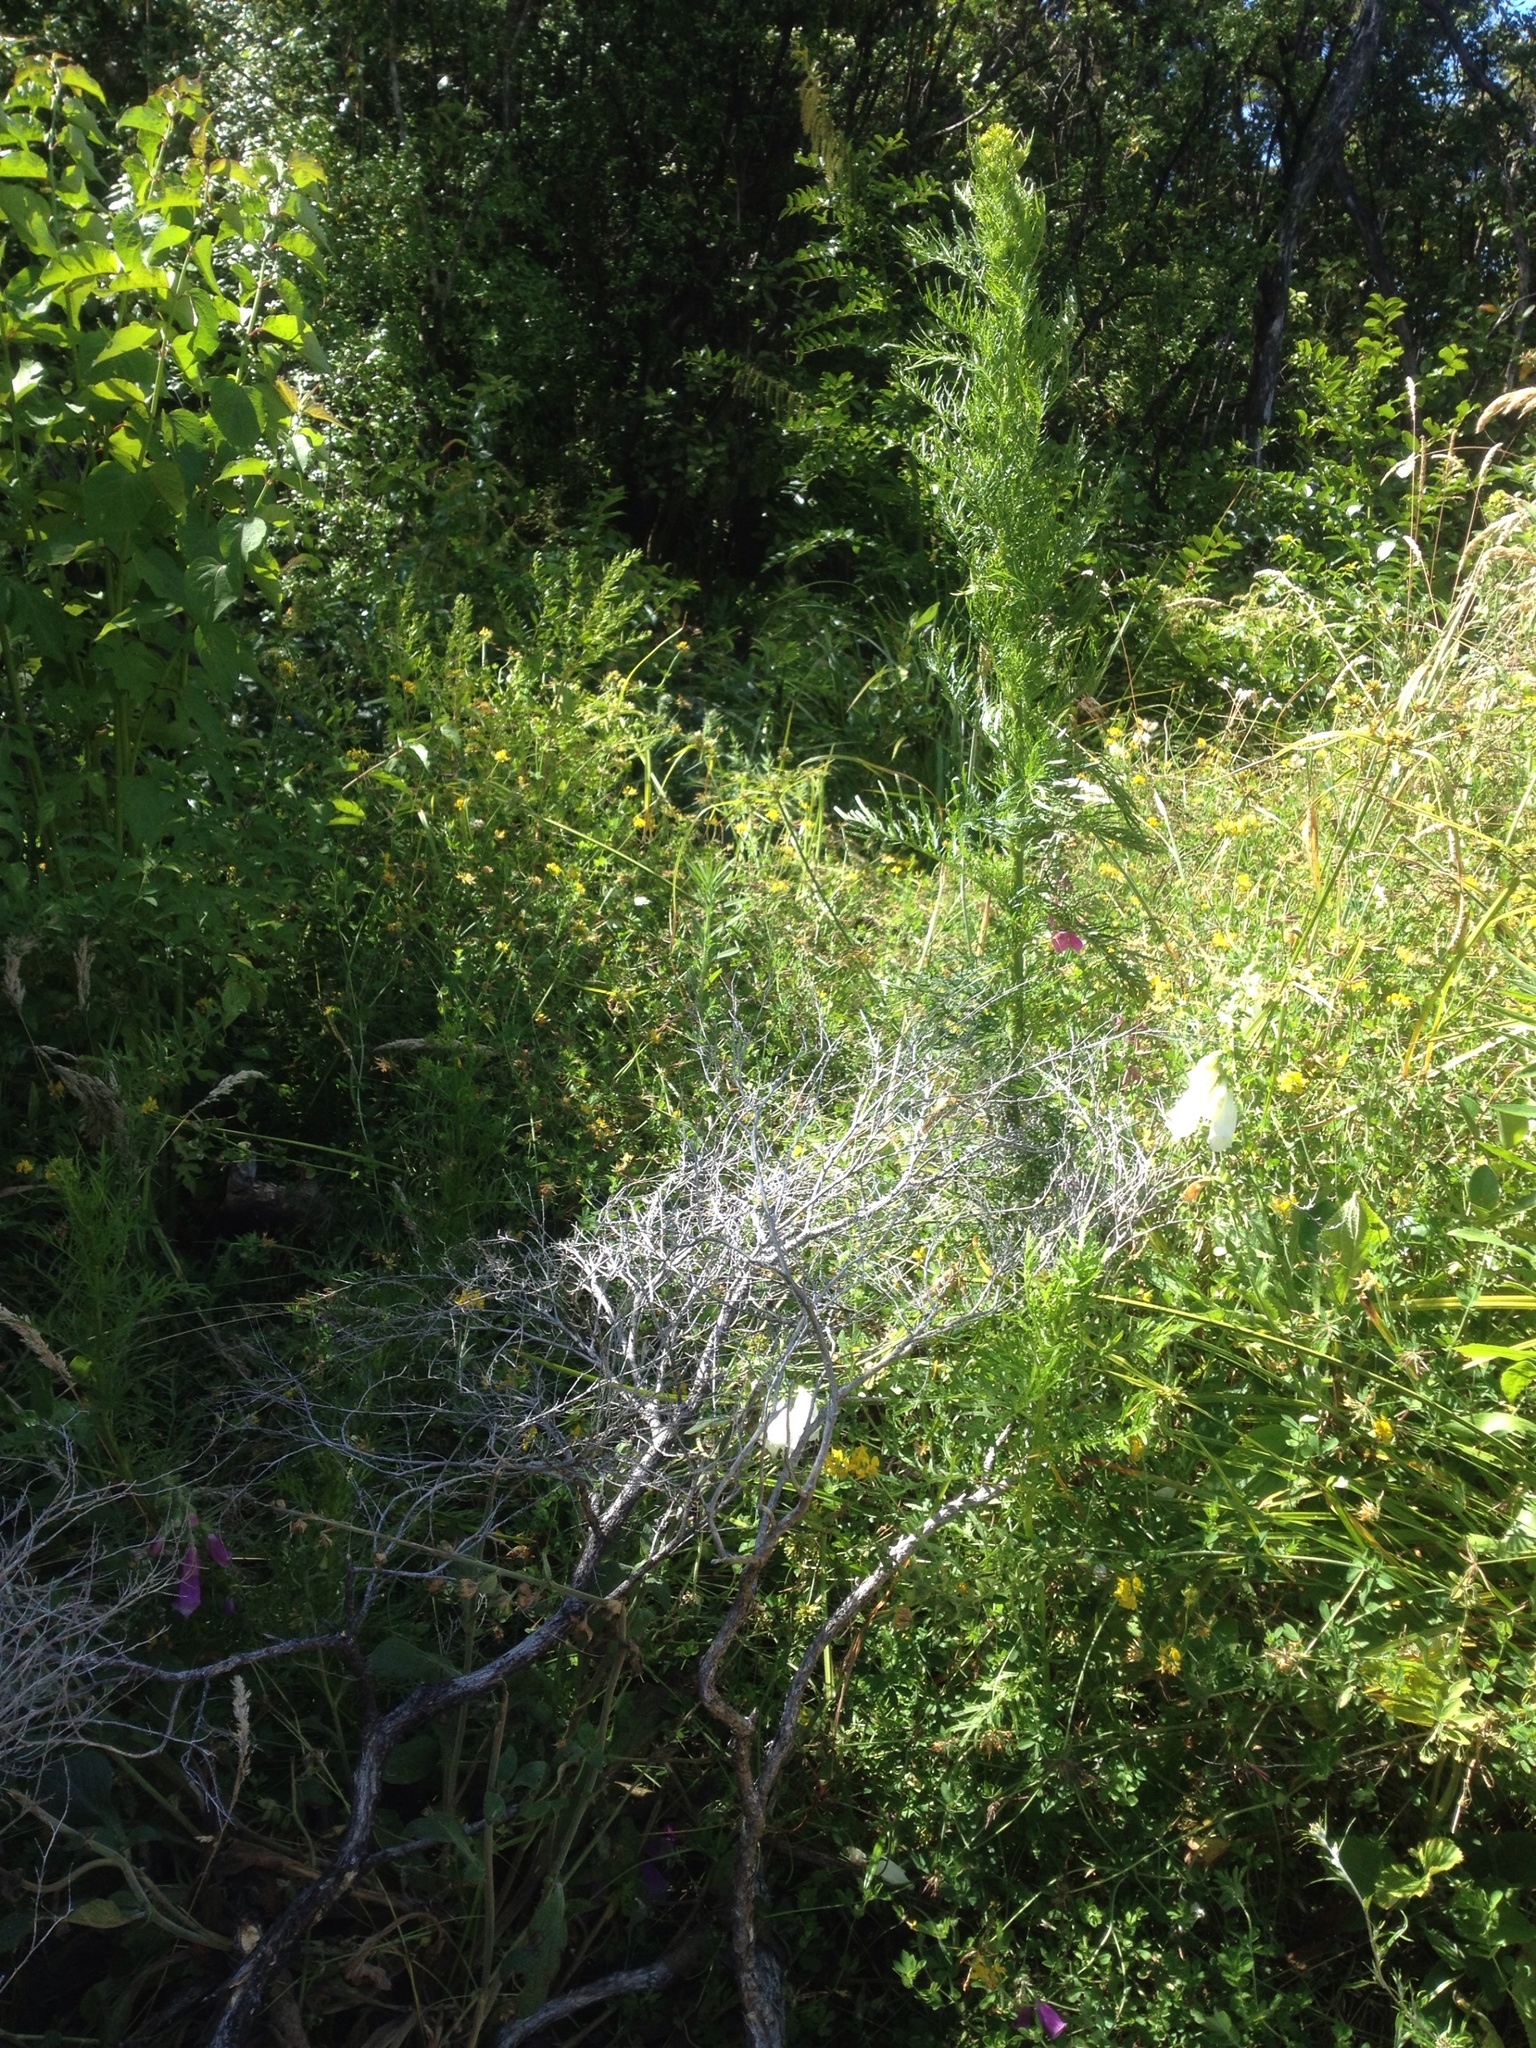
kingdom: Plantae
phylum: Tracheophyta
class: Magnoliopsida
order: Asterales
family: Asteraceae
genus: Senecio
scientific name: Senecio bipinnatisectus
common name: Australian fireweed
